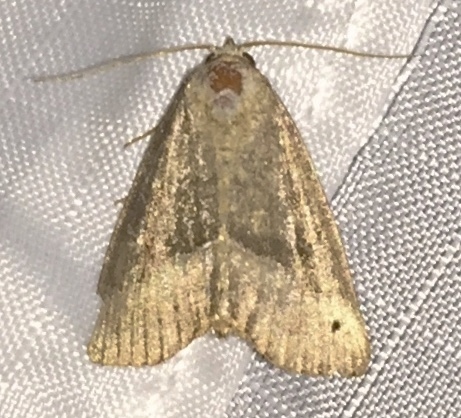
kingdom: Animalia
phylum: Arthropoda
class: Insecta
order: Lepidoptera
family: Noctuidae
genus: Ogdoconta
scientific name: Ogdoconta cinereola
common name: Common pinkband
